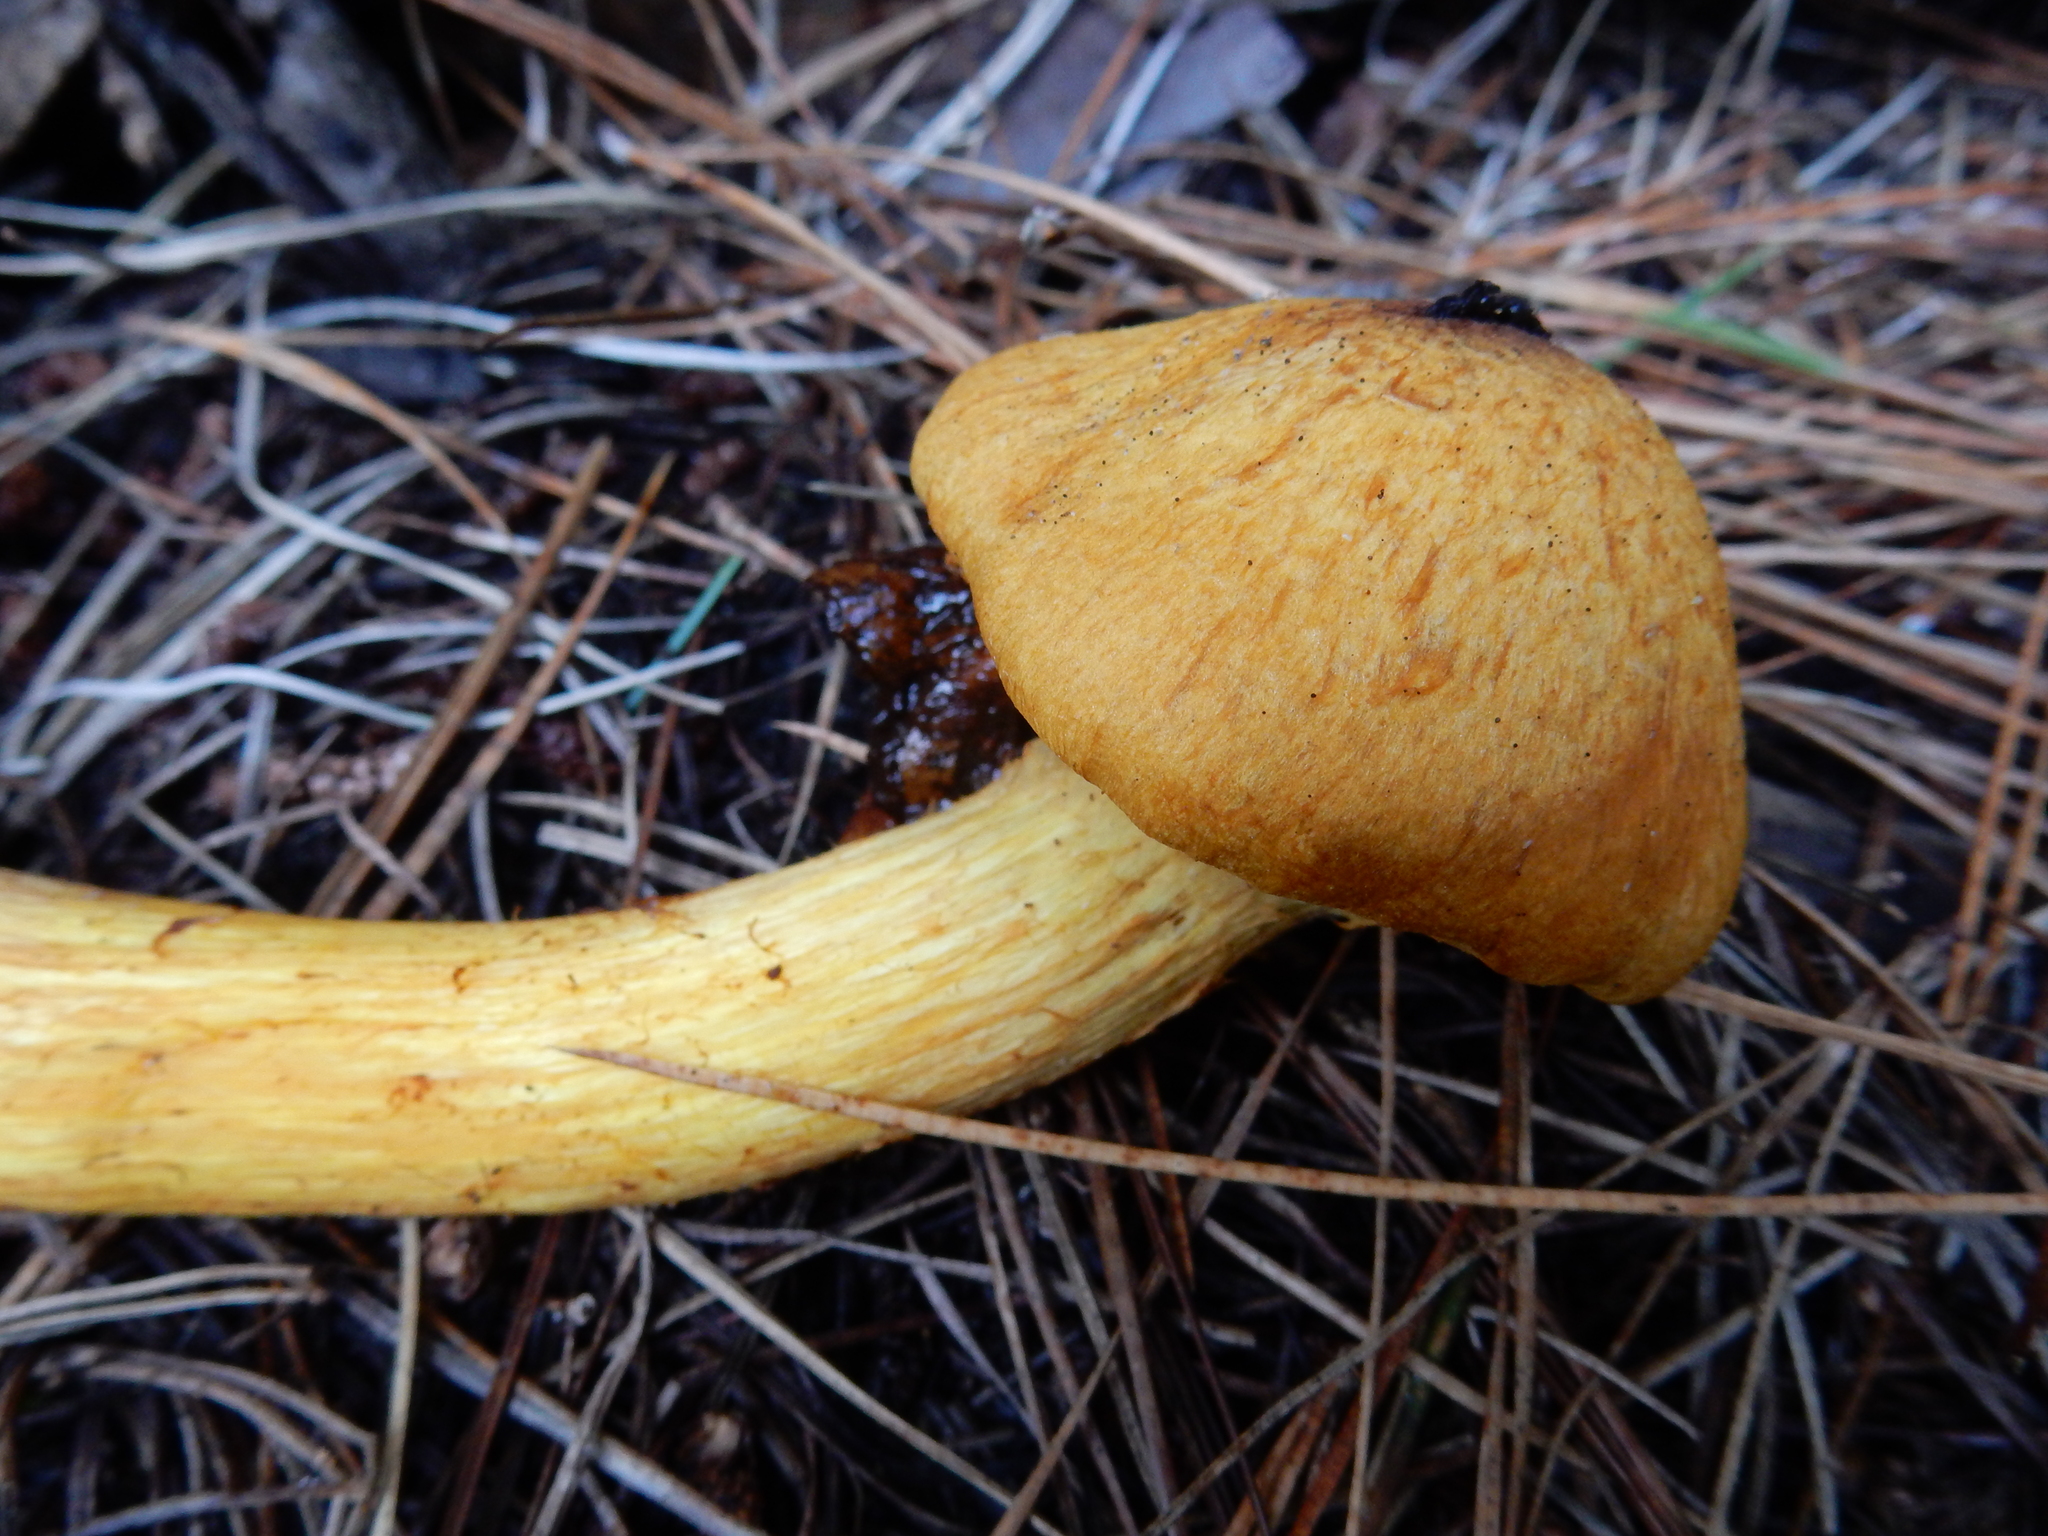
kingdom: Fungi
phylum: Basidiomycota
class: Agaricomycetes
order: Agaricales
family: Hymenogastraceae
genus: Gymnopilus
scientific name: Gymnopilus junonius
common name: Spectacular rustgill
